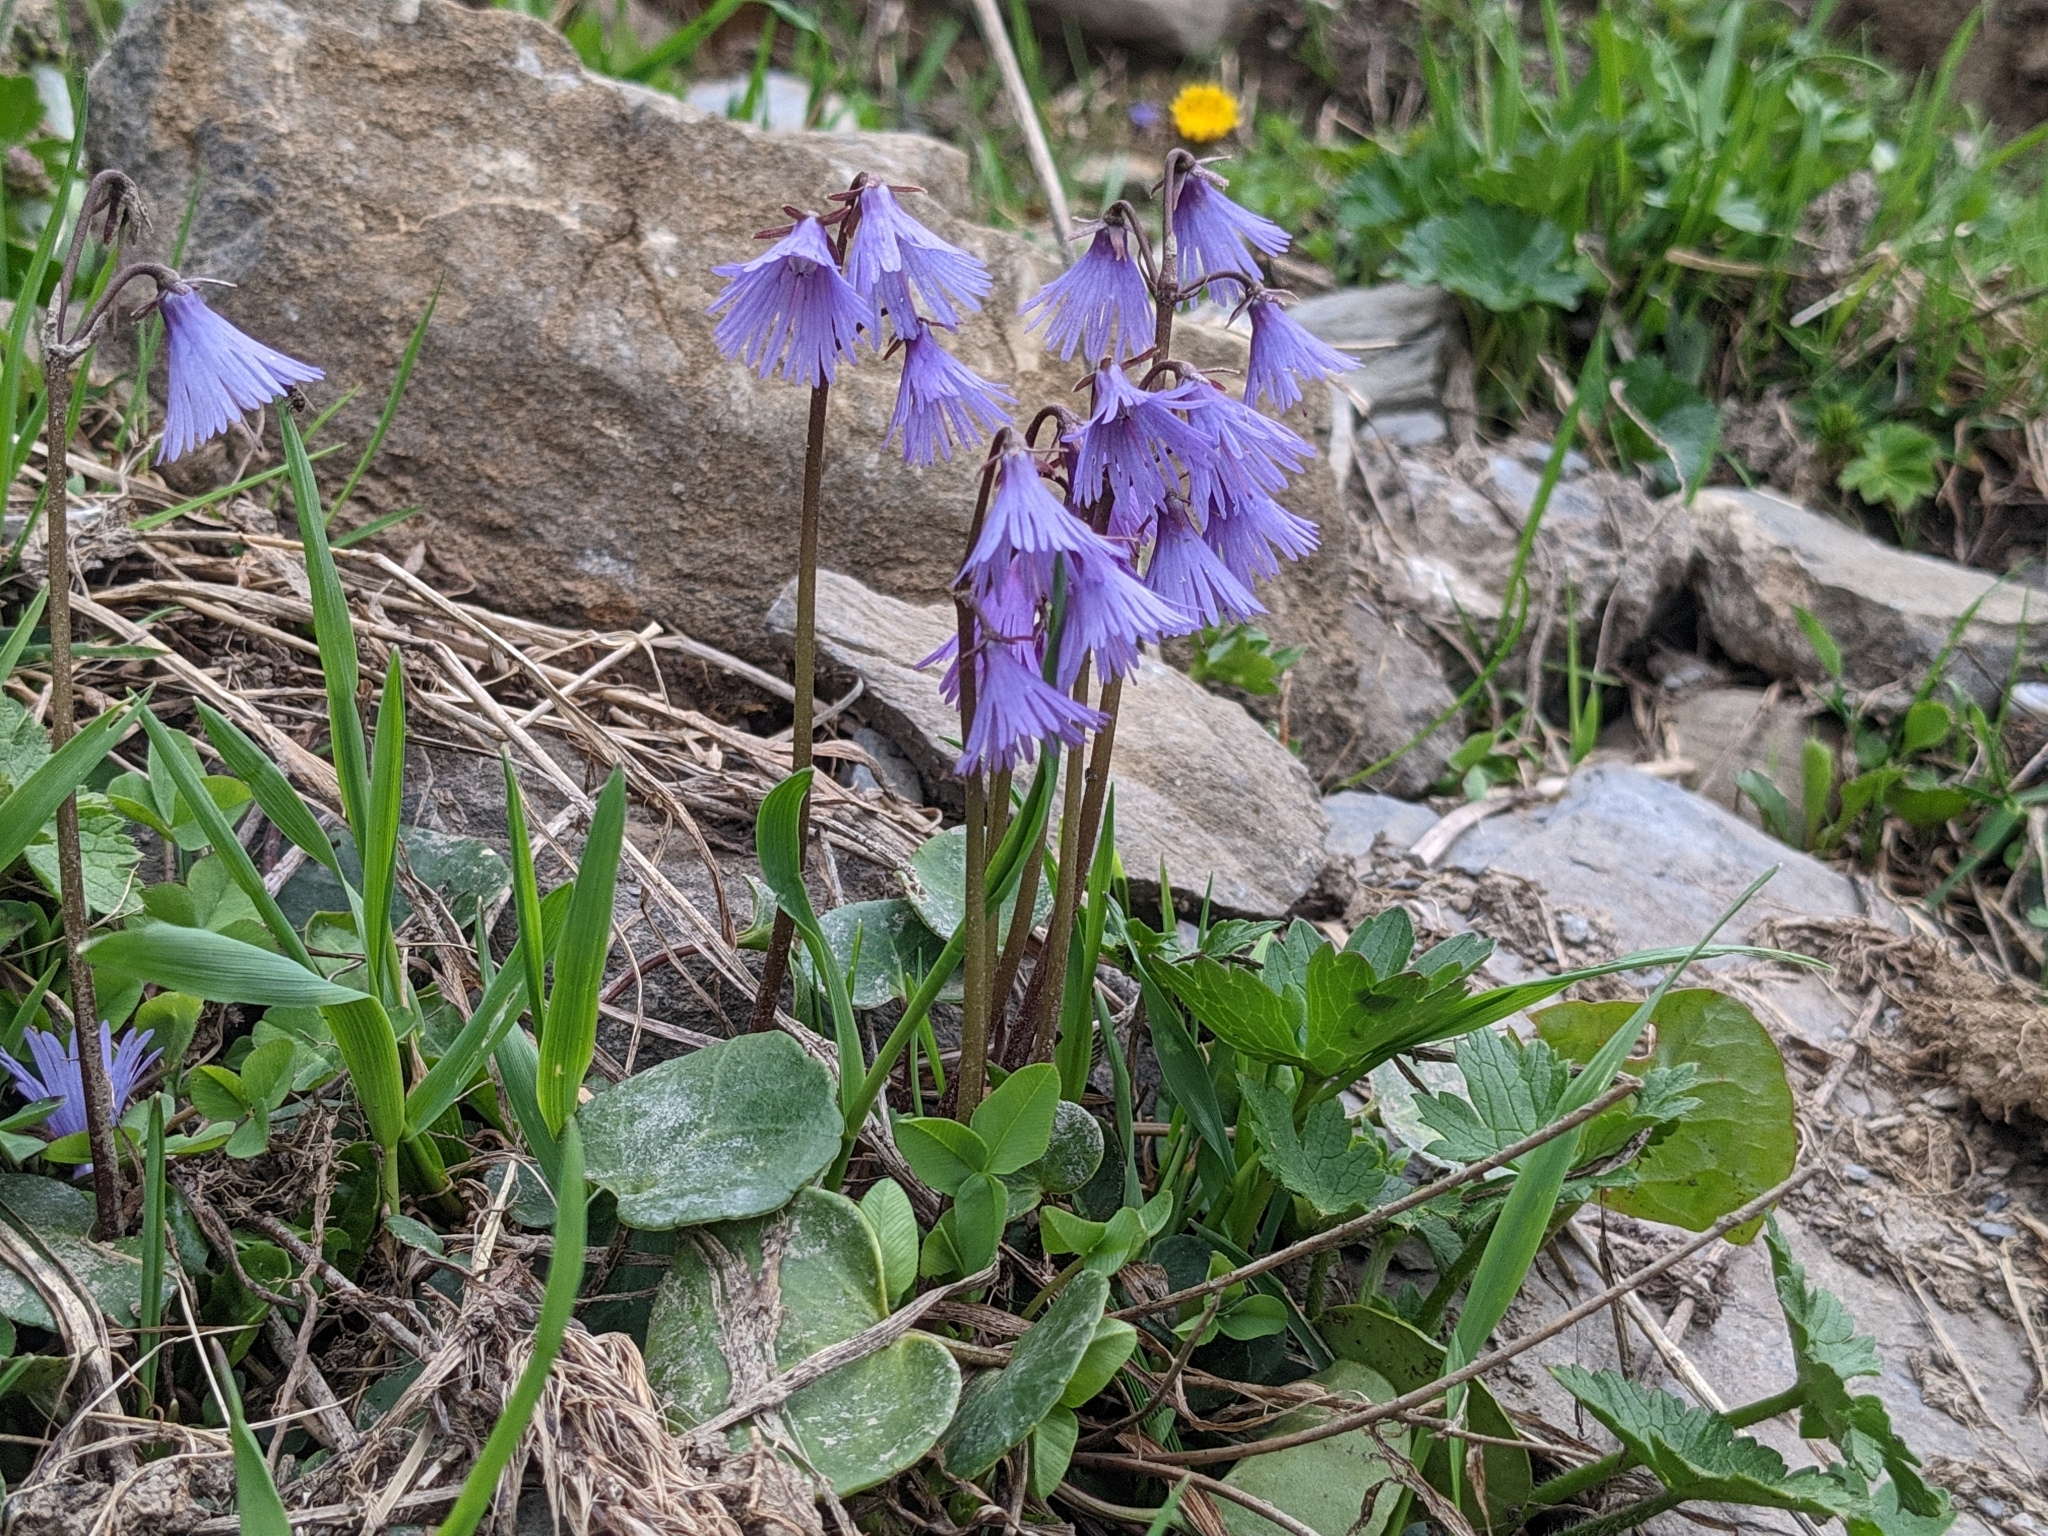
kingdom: Plantae
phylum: Tracheophyta
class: Magnoliopsida
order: Ericales
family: Primulaceae
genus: Soldanella
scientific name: Soldanella alpina
